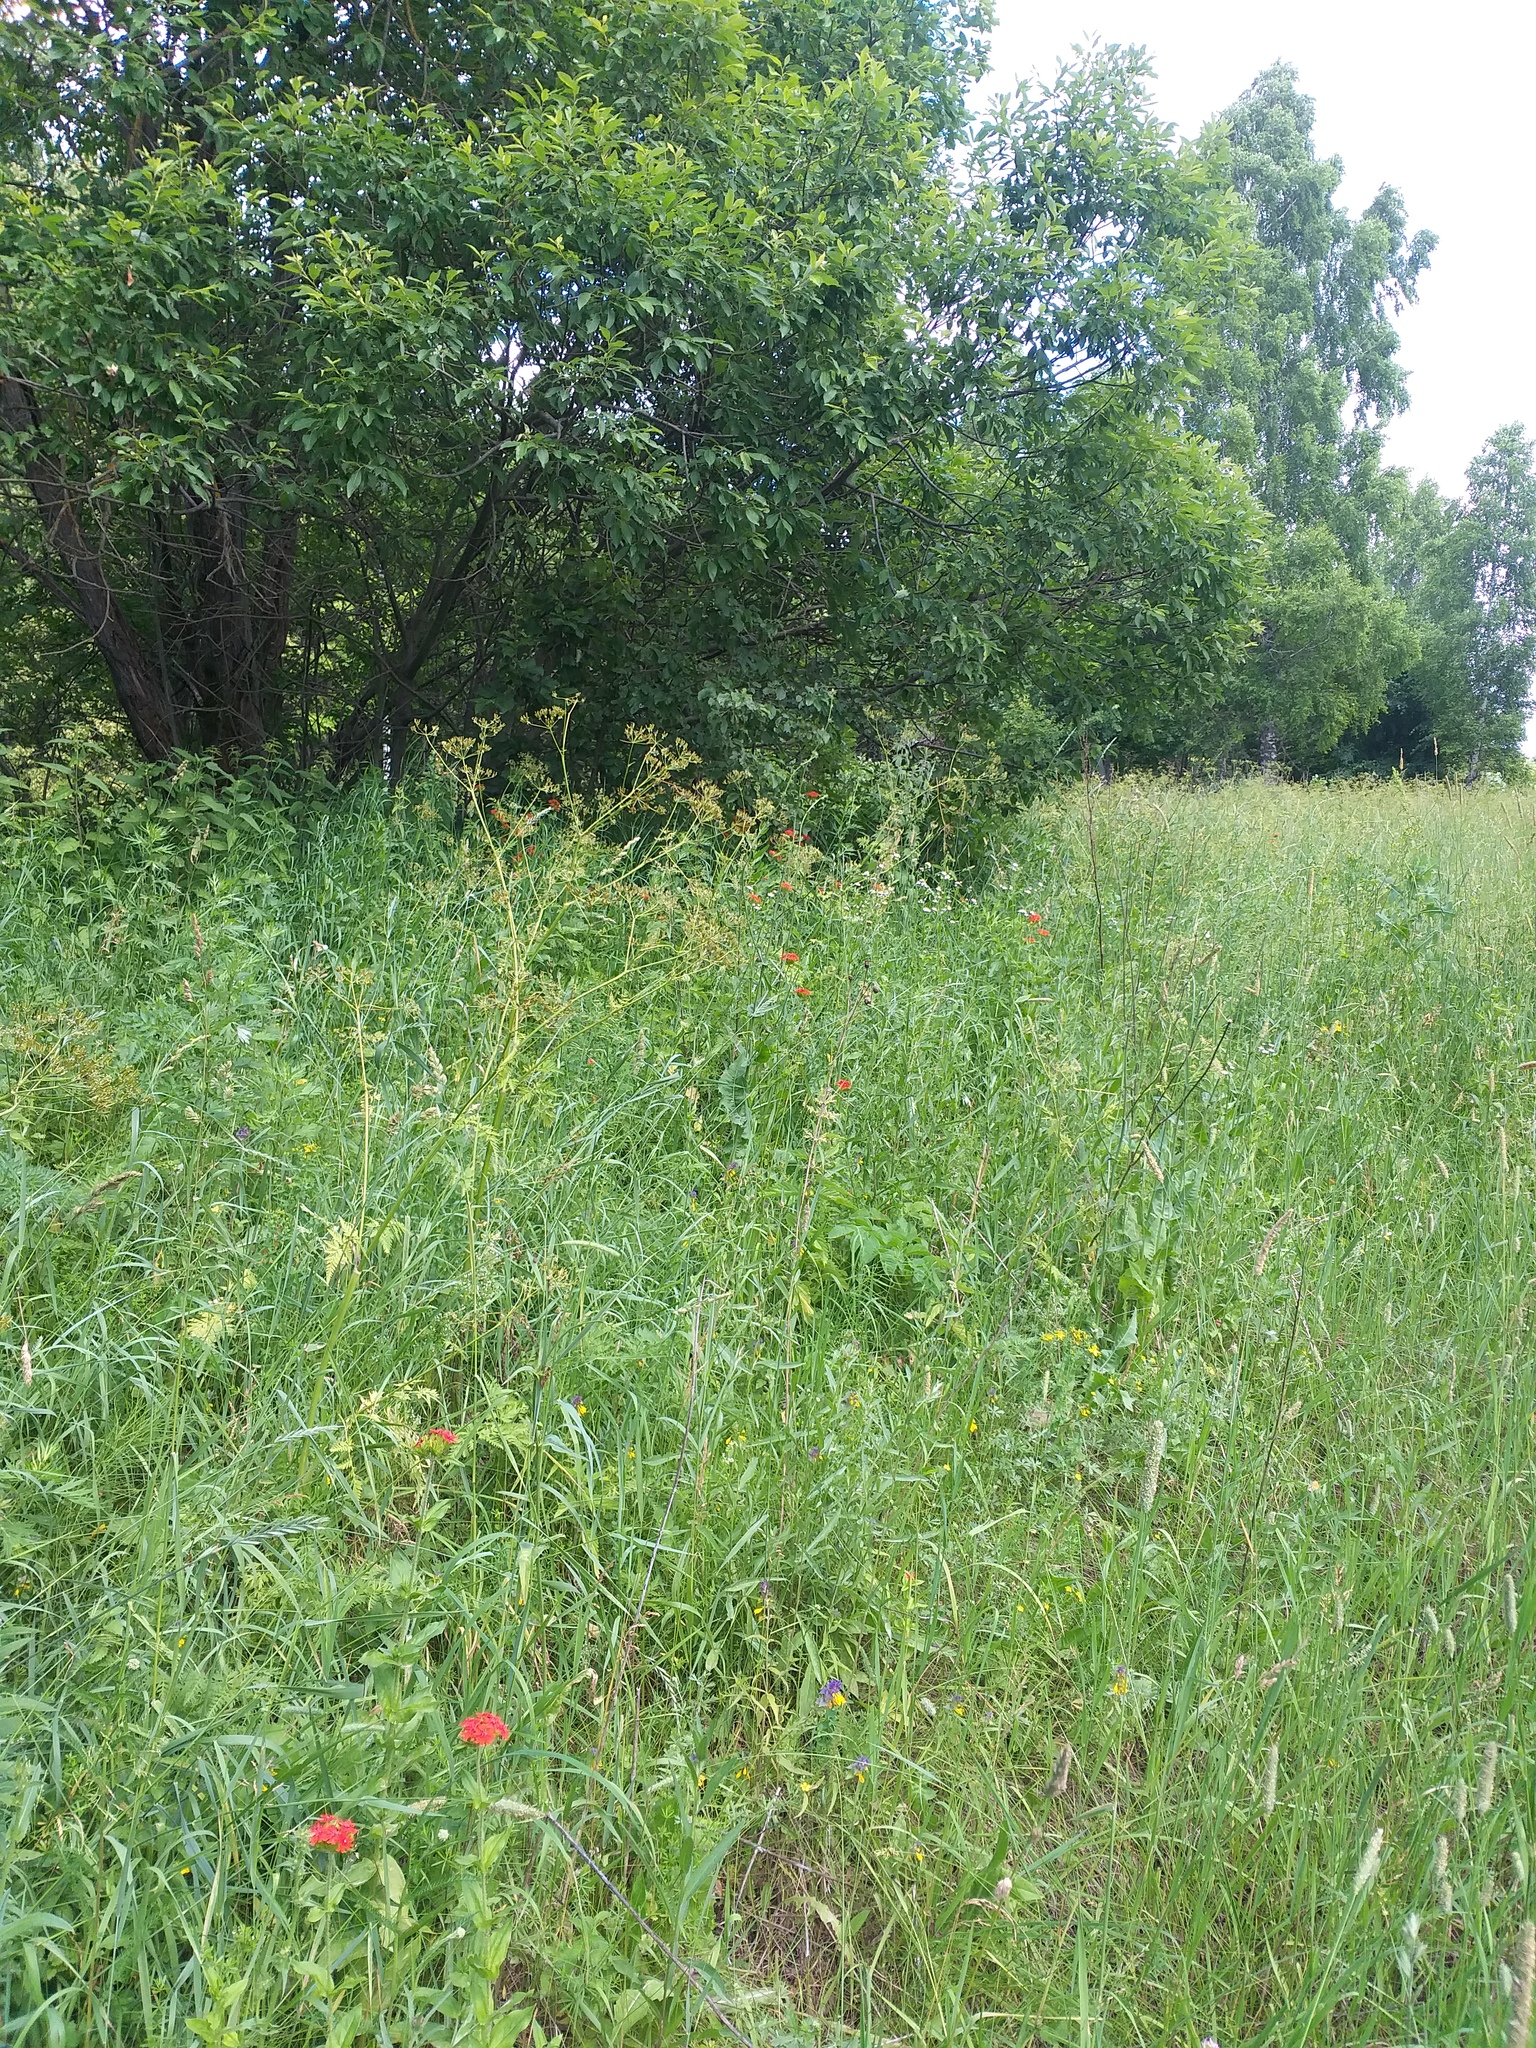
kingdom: Plantae
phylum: Tracheophyta
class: Magnoliopsida
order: Caryophyllales
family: Caryophyllaceae
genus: Silene
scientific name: Silene chalcedonica
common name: Maltese-cross
